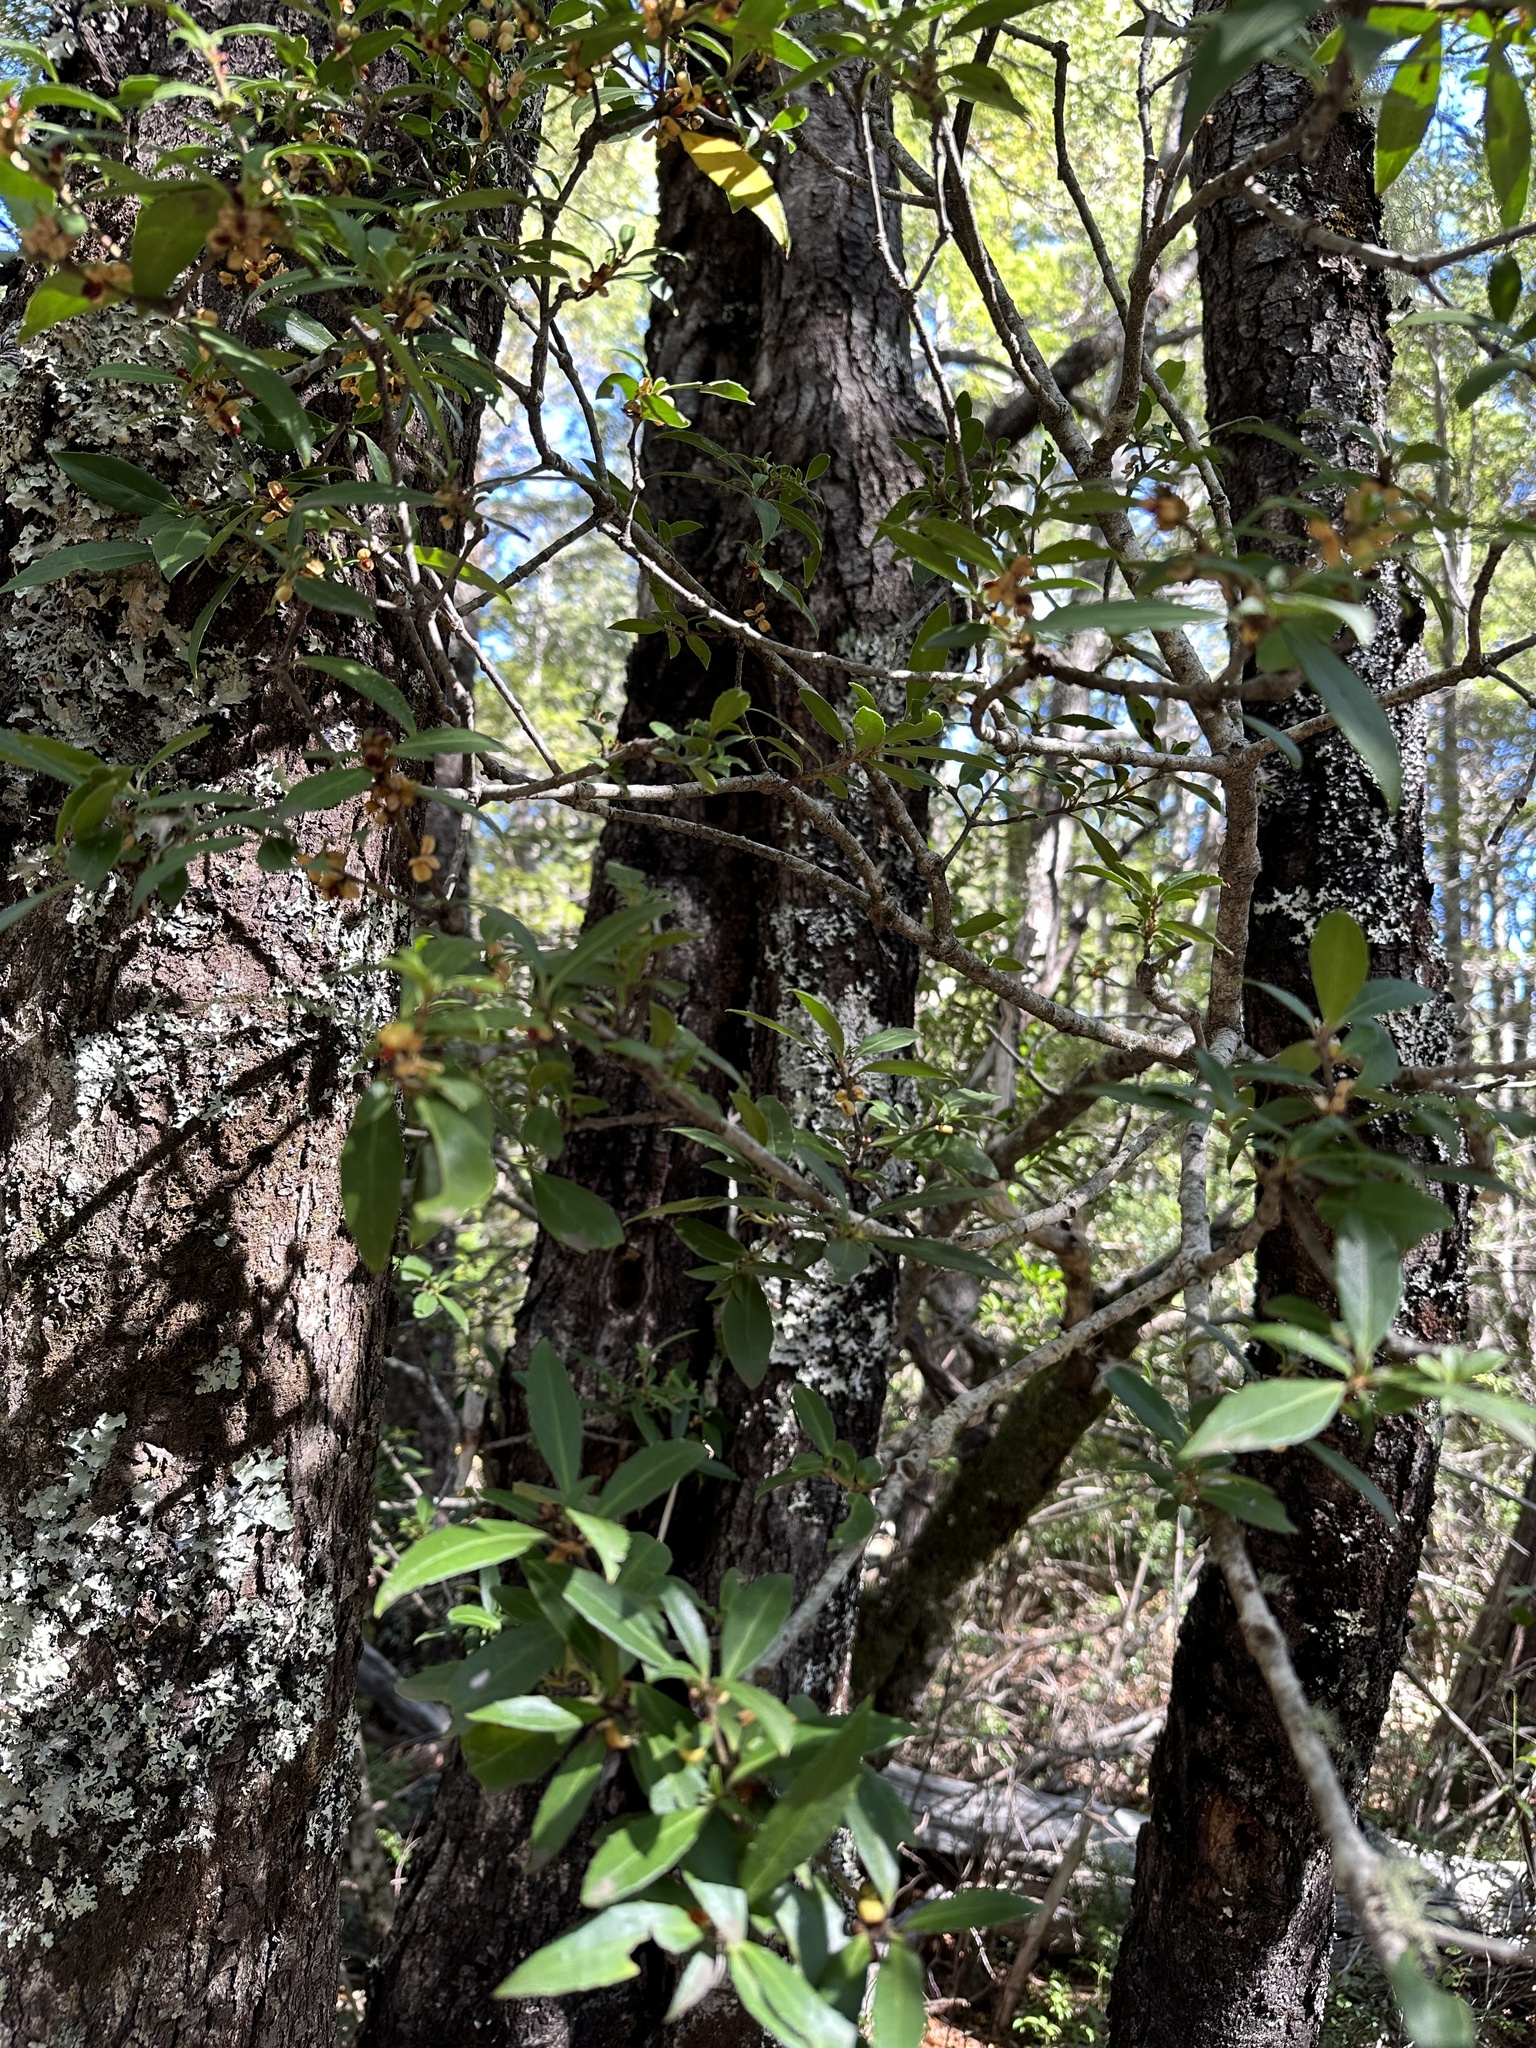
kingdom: Plantae
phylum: Tracheophyta
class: Magnoliopsida
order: Celastrales
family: Celastraceae
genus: Maytenus
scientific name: Maytenus magellanica
